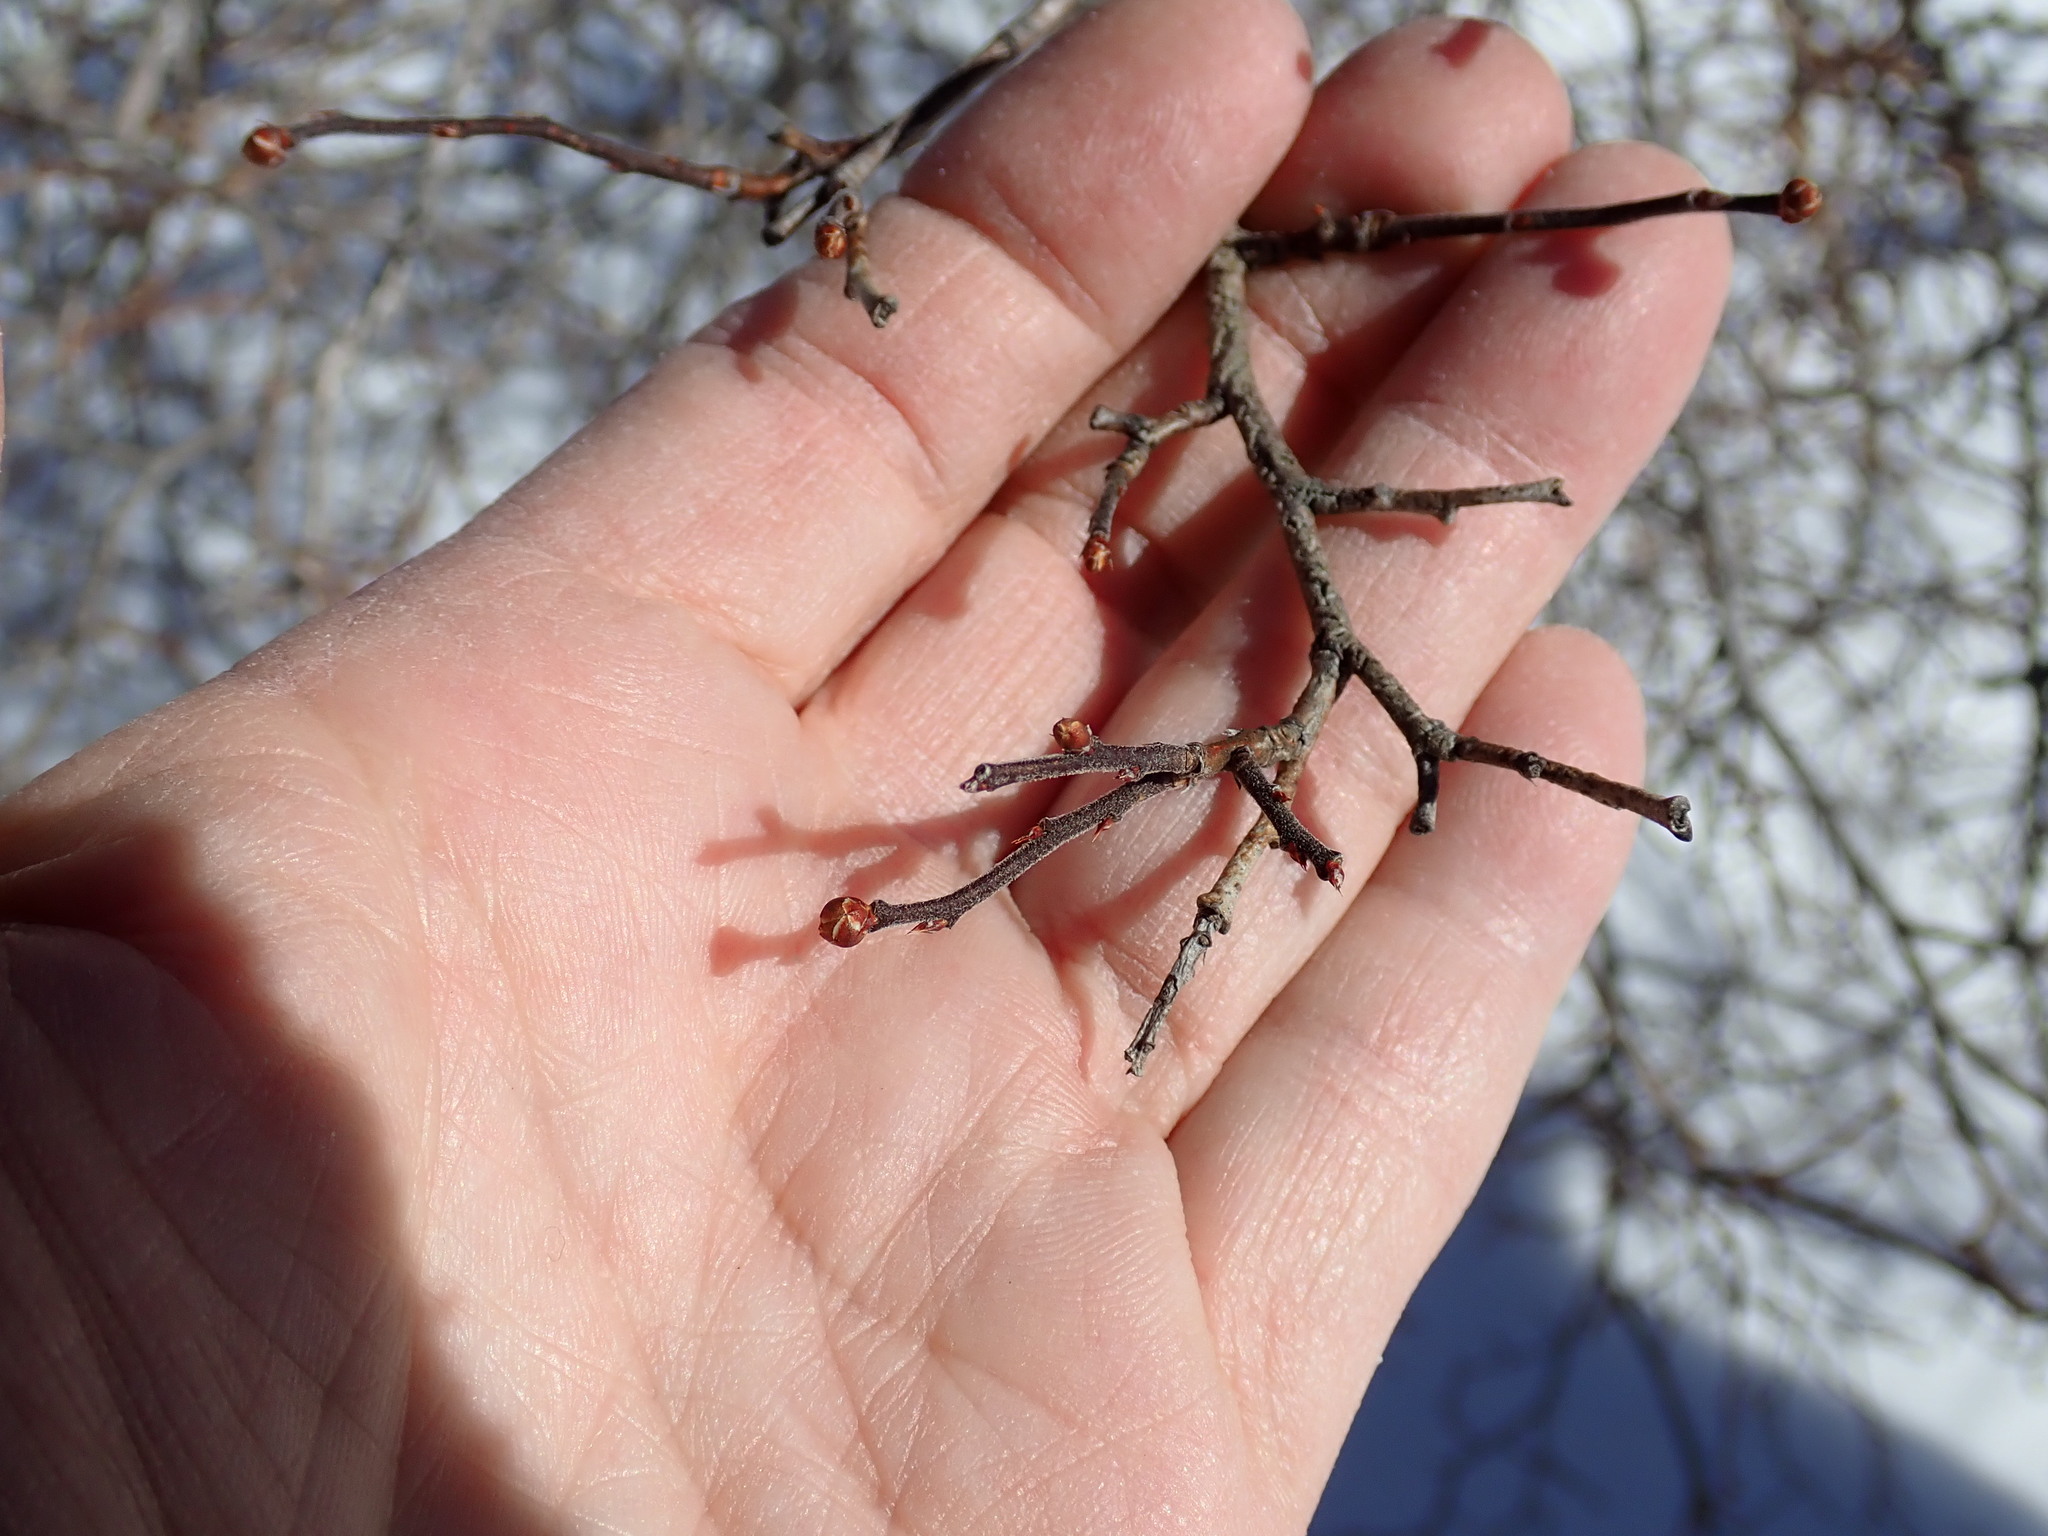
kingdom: Plantae
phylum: Tracheophyta
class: Magnoliopsida
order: Ericales
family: Ericaceae
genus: Vaccinium
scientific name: Vaccinium corymbosum
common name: Blueberry
